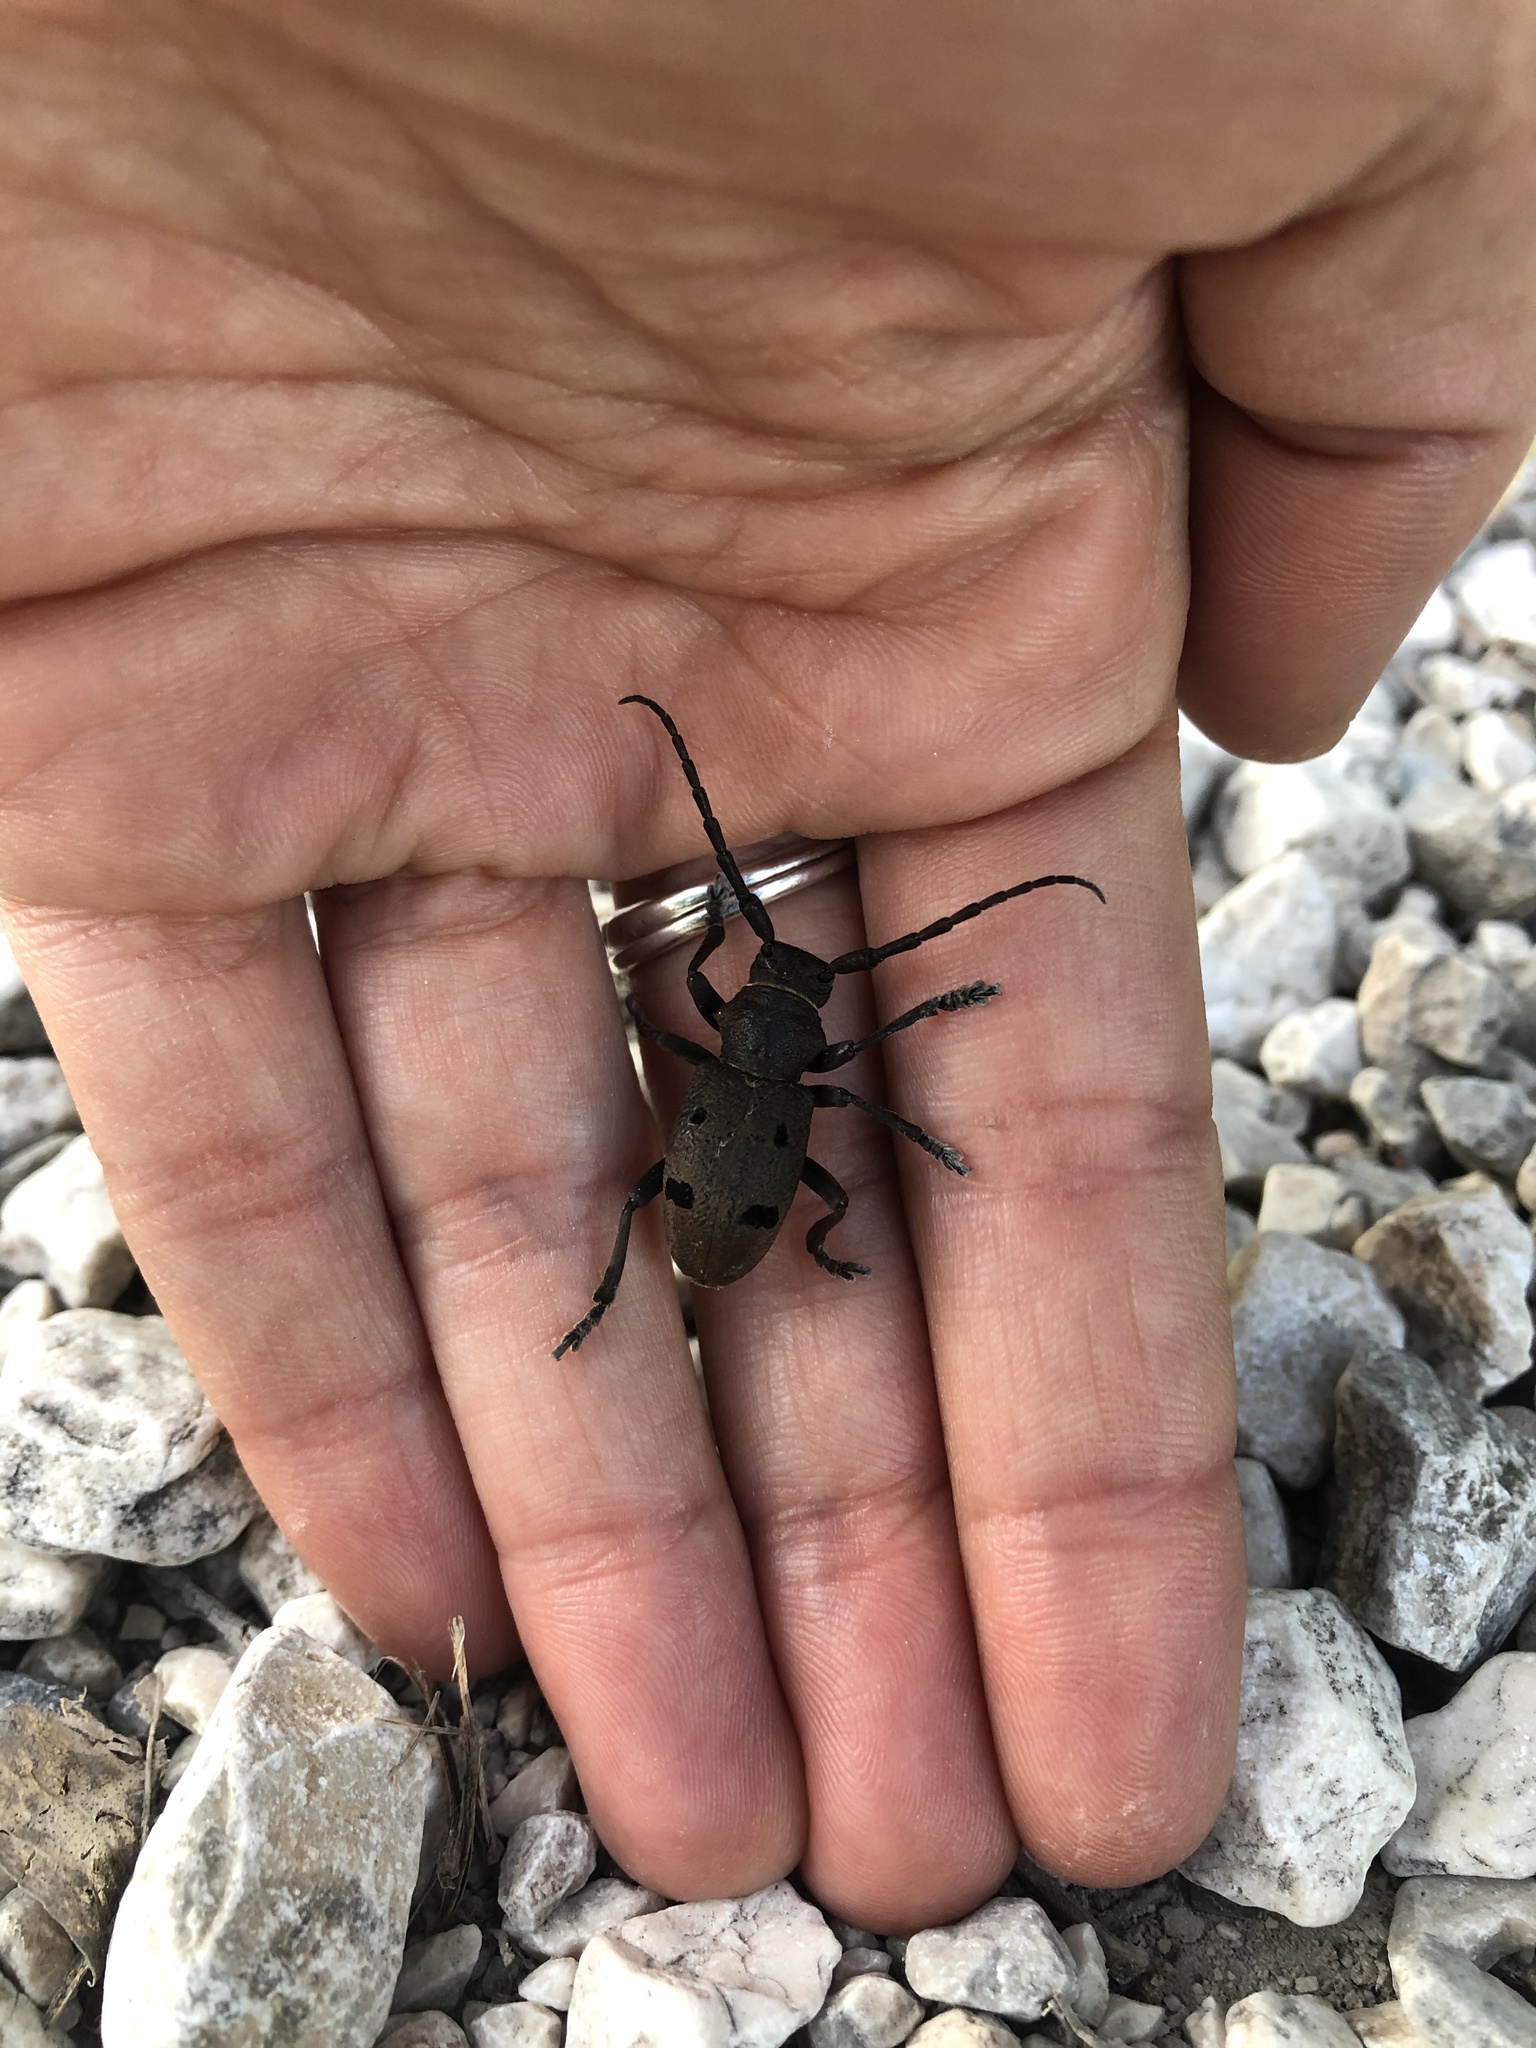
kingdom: Animalia
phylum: Arthropoda
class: Insecta
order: Coleoptera
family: Cerambycidae
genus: Herophila
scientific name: Herophila tristis
